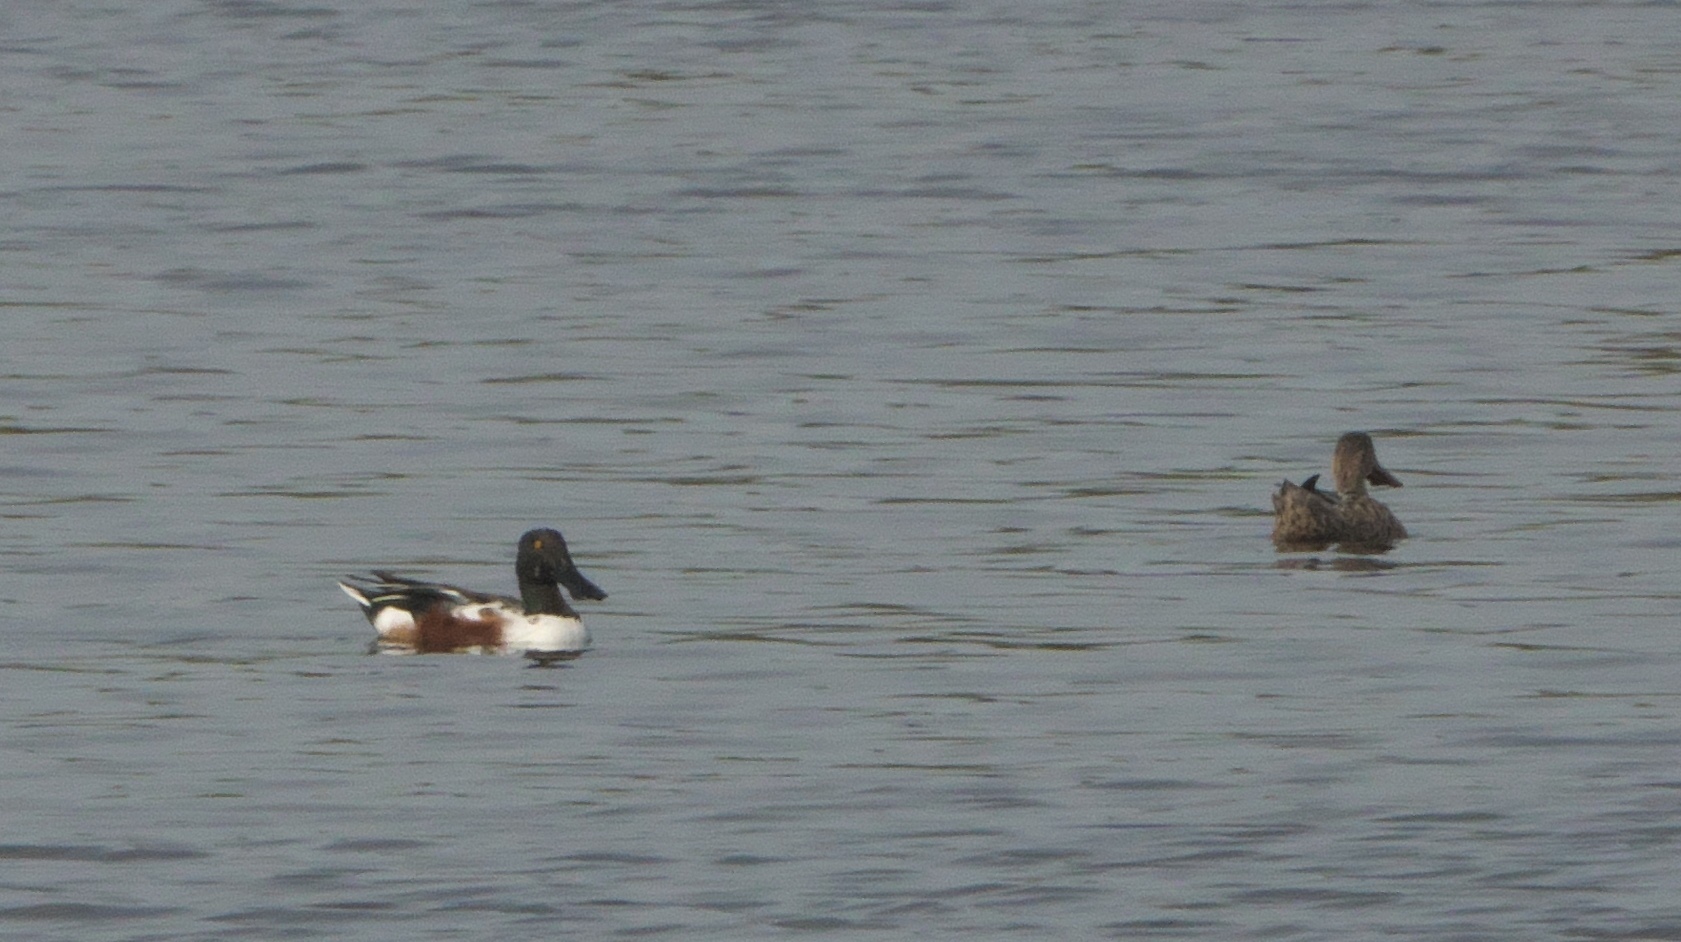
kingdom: Animalia
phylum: Chordata
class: Aves
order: Anseriformes
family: Anatidae
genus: Spatula
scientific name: Spatula clypeata
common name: Northern shoveler
